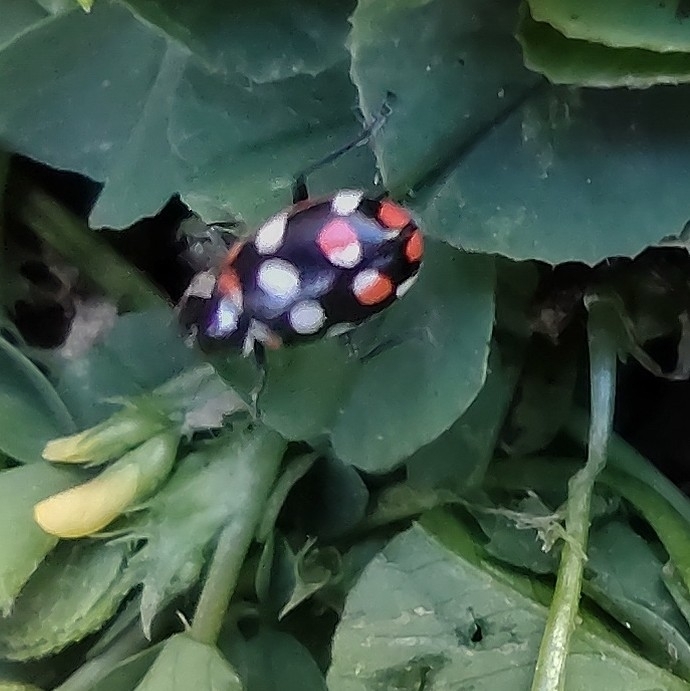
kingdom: Animalia
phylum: Arthropoda
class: Insecta
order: Coleoptera
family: Coccinellidae
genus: Eriopis
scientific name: Eriopis connexa
